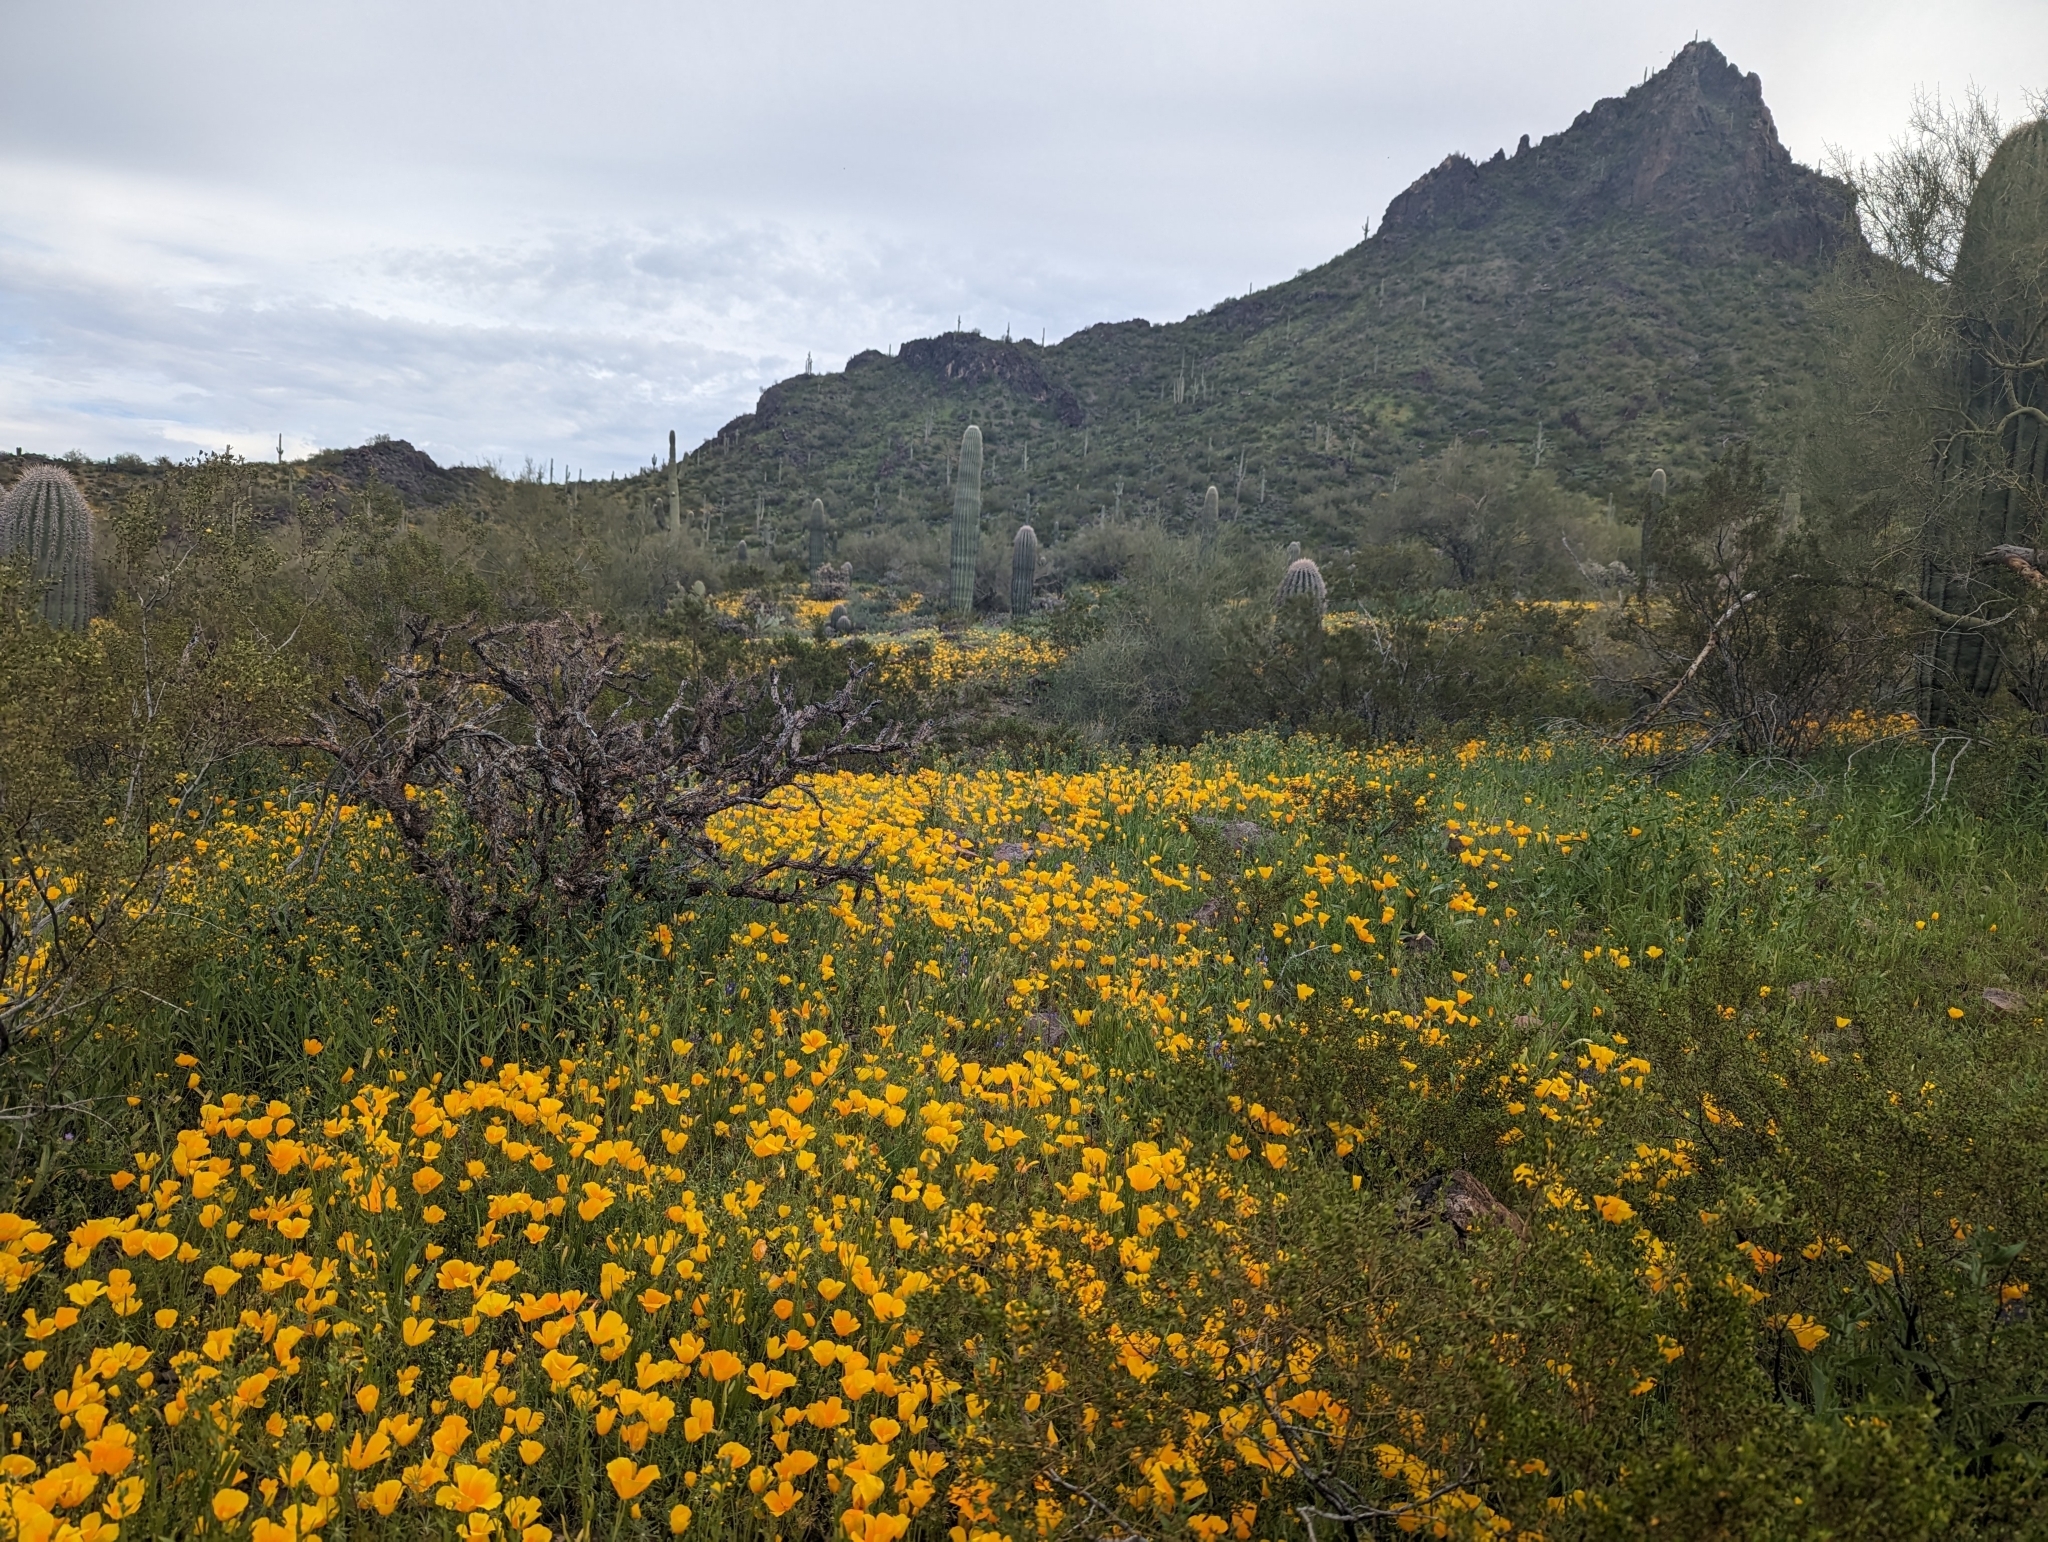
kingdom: Plantae
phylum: Tracheophyta
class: Magnoliopsida
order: Ranunculales
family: Papaveraceae
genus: Eschscholzia
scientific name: Eschscholzia californica
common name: California poppy
